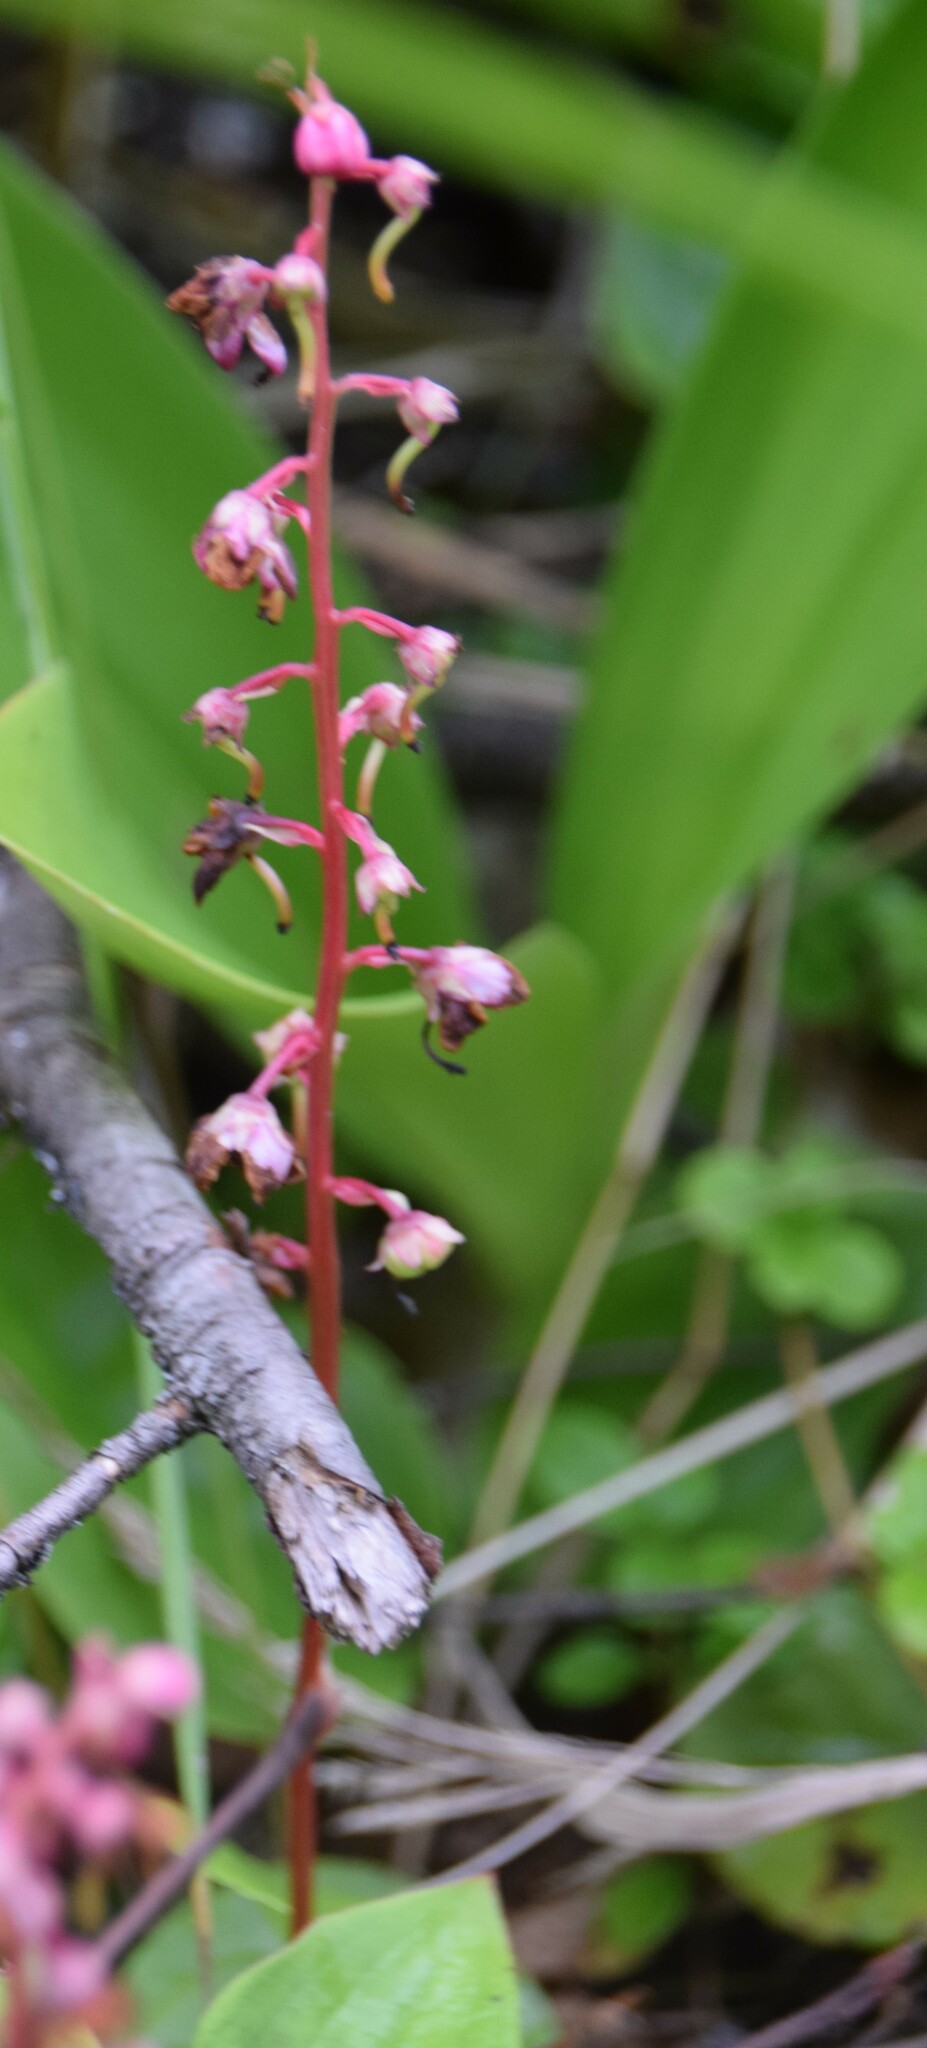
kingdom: Plantae
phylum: Tracheophyta
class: Magnoliopsida
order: Ericales
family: Ericaceae
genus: Pyrola
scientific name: Pyrola asarifolia
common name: Bog wintergreen
